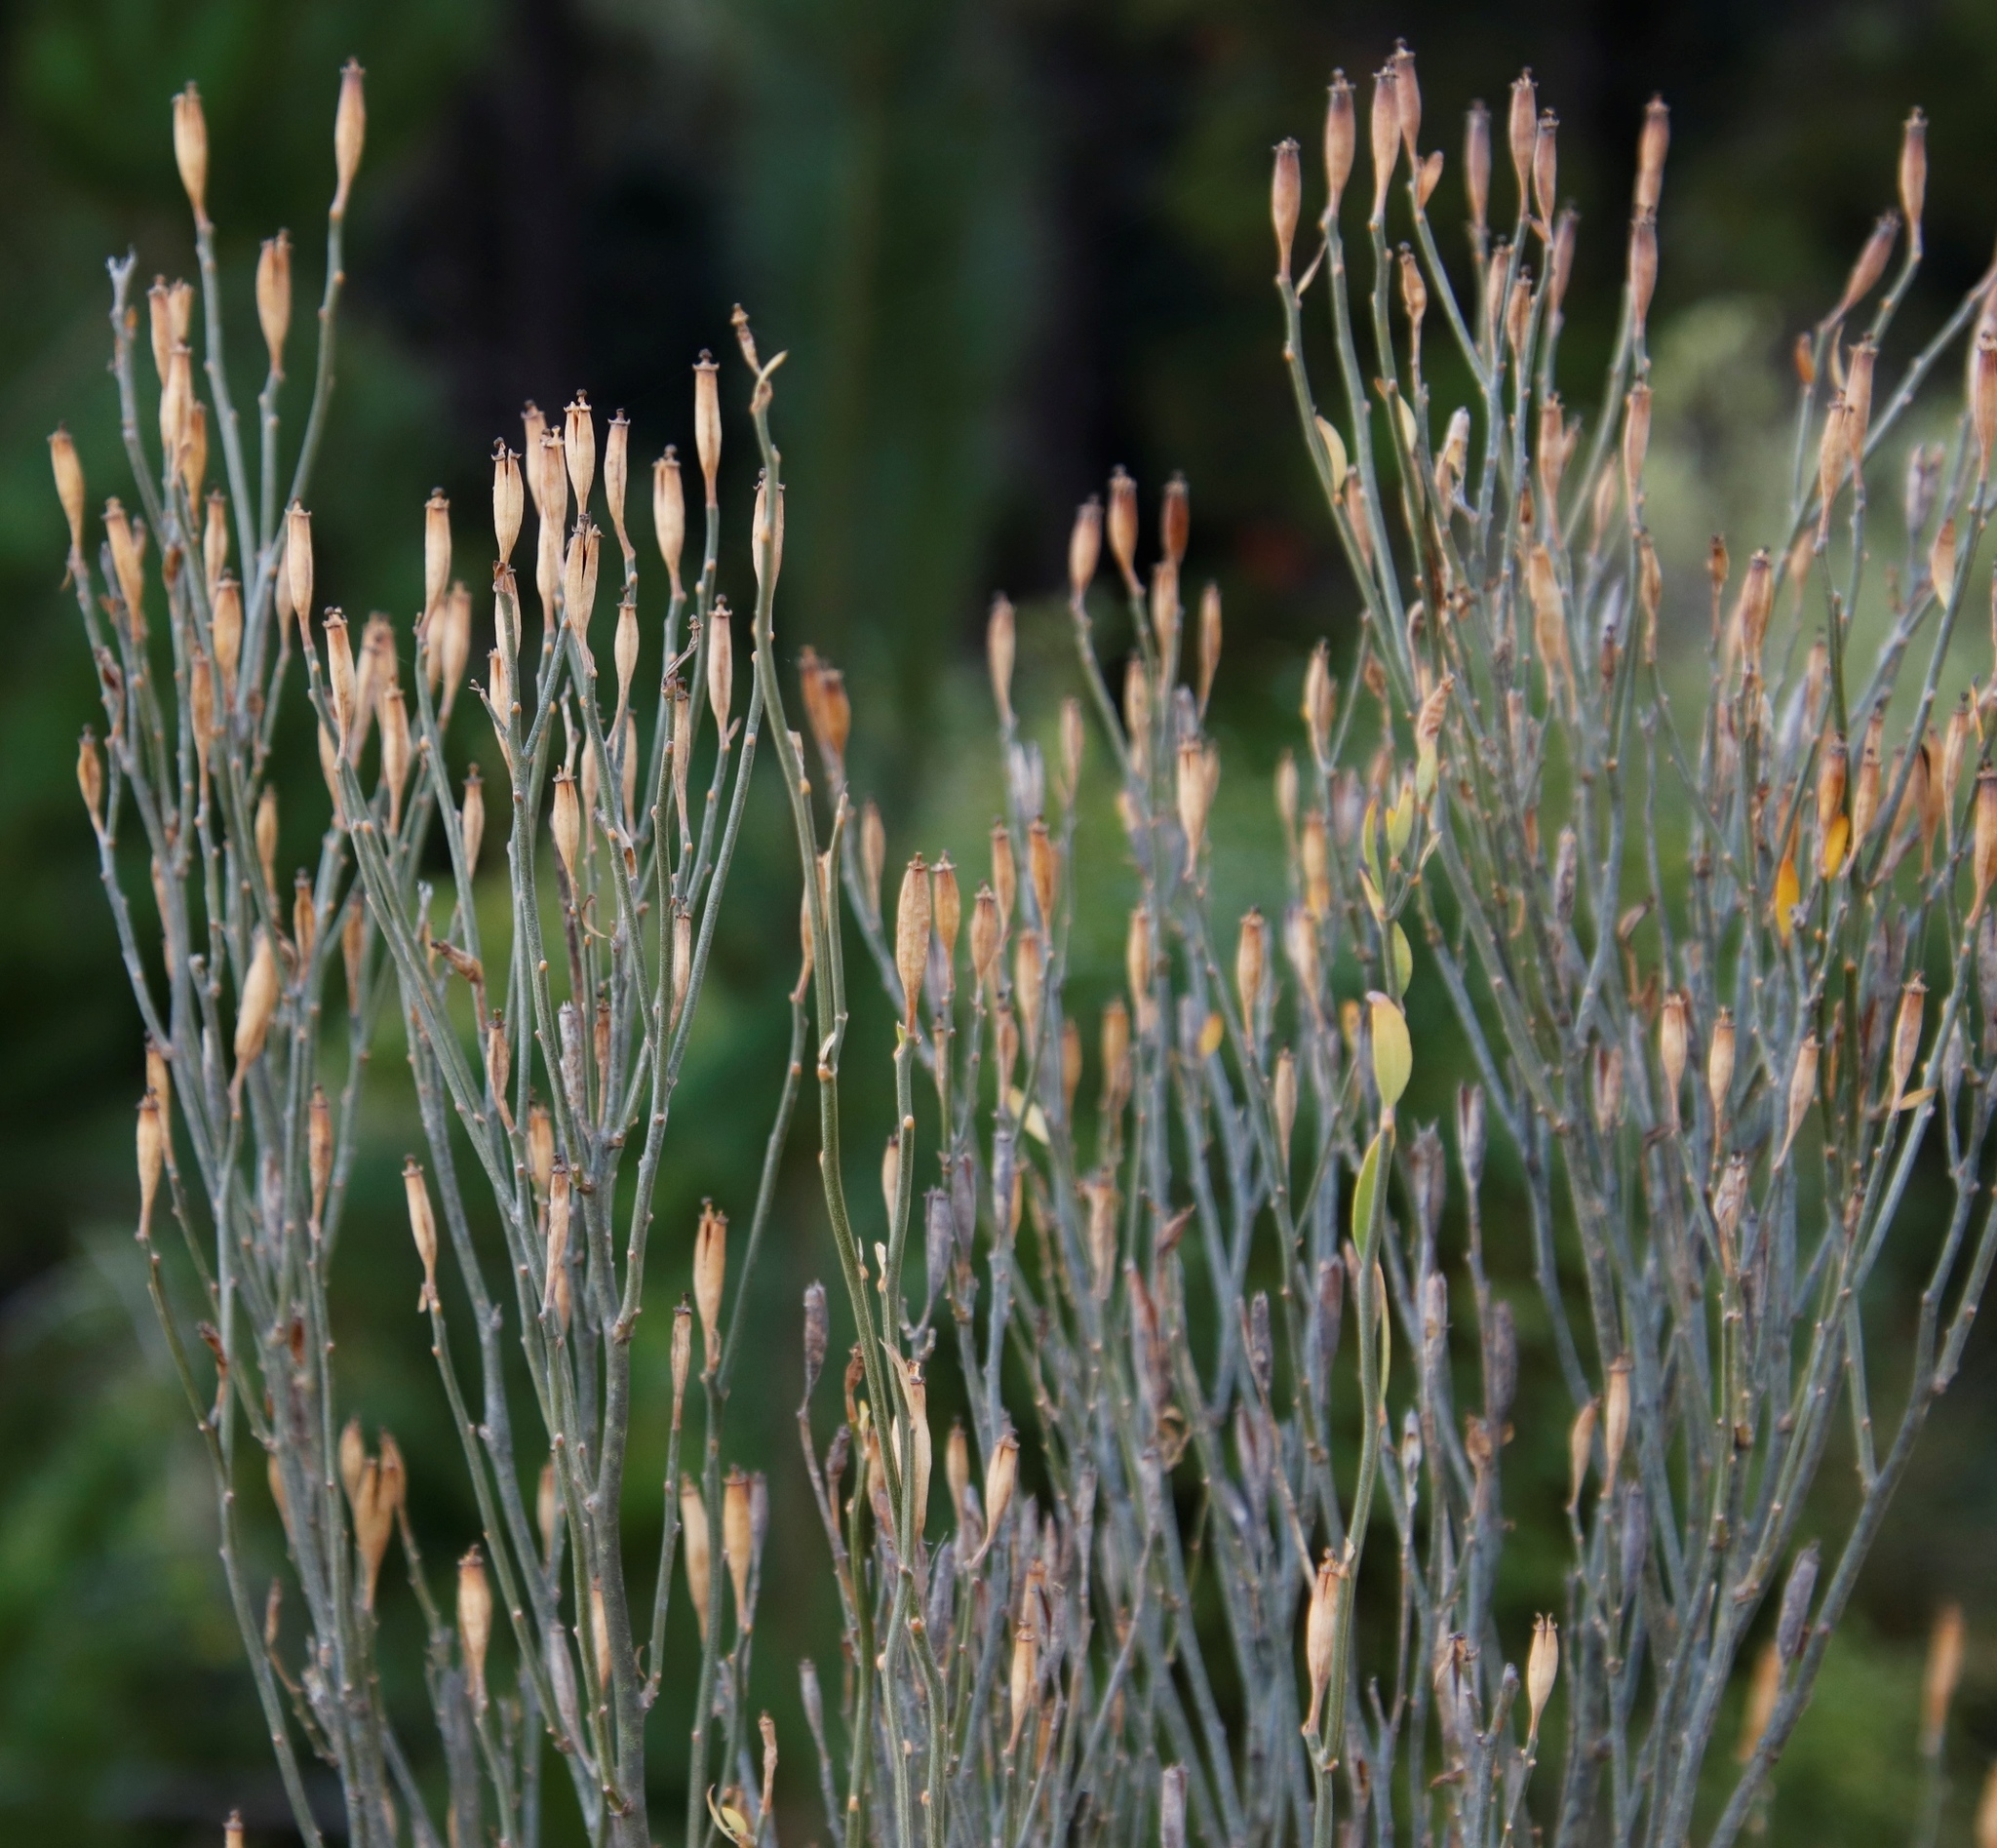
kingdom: Plantae
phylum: Tracheophyta
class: Magnoliopsida
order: Solanales
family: Montiniaceae
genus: Montinia
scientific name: Montinia caryophyllacea
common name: Wild clove-bush
